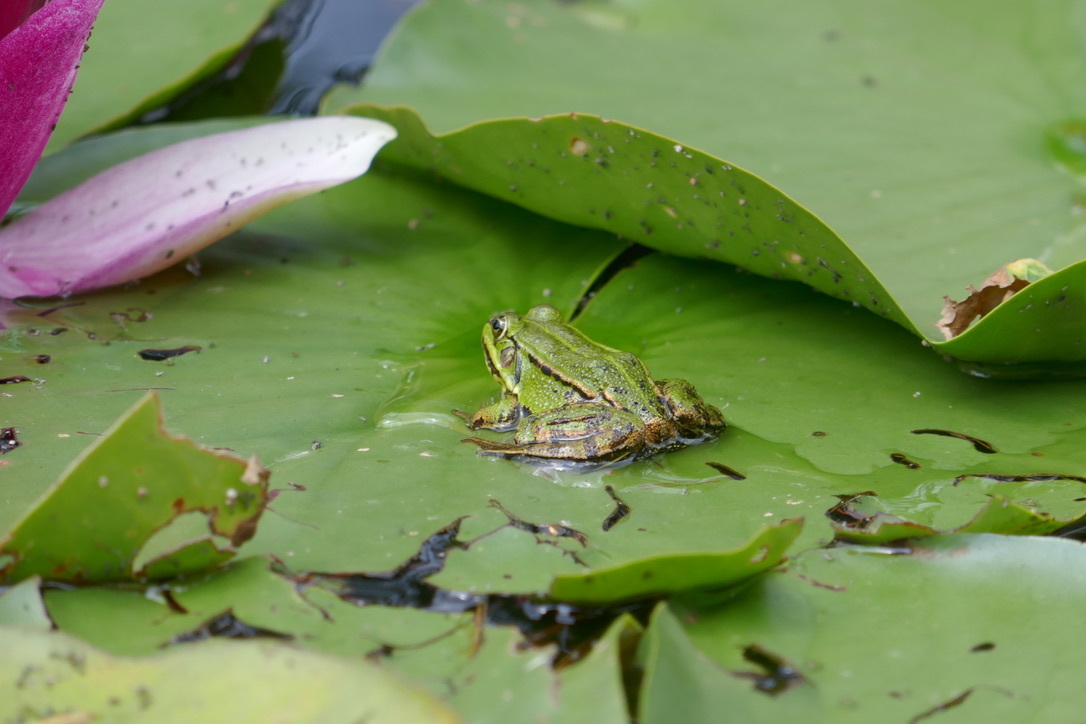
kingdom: Animalia
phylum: Chordata
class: Amphibia
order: Anura
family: Ranidae
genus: Pelophylax
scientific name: Pelophylax
